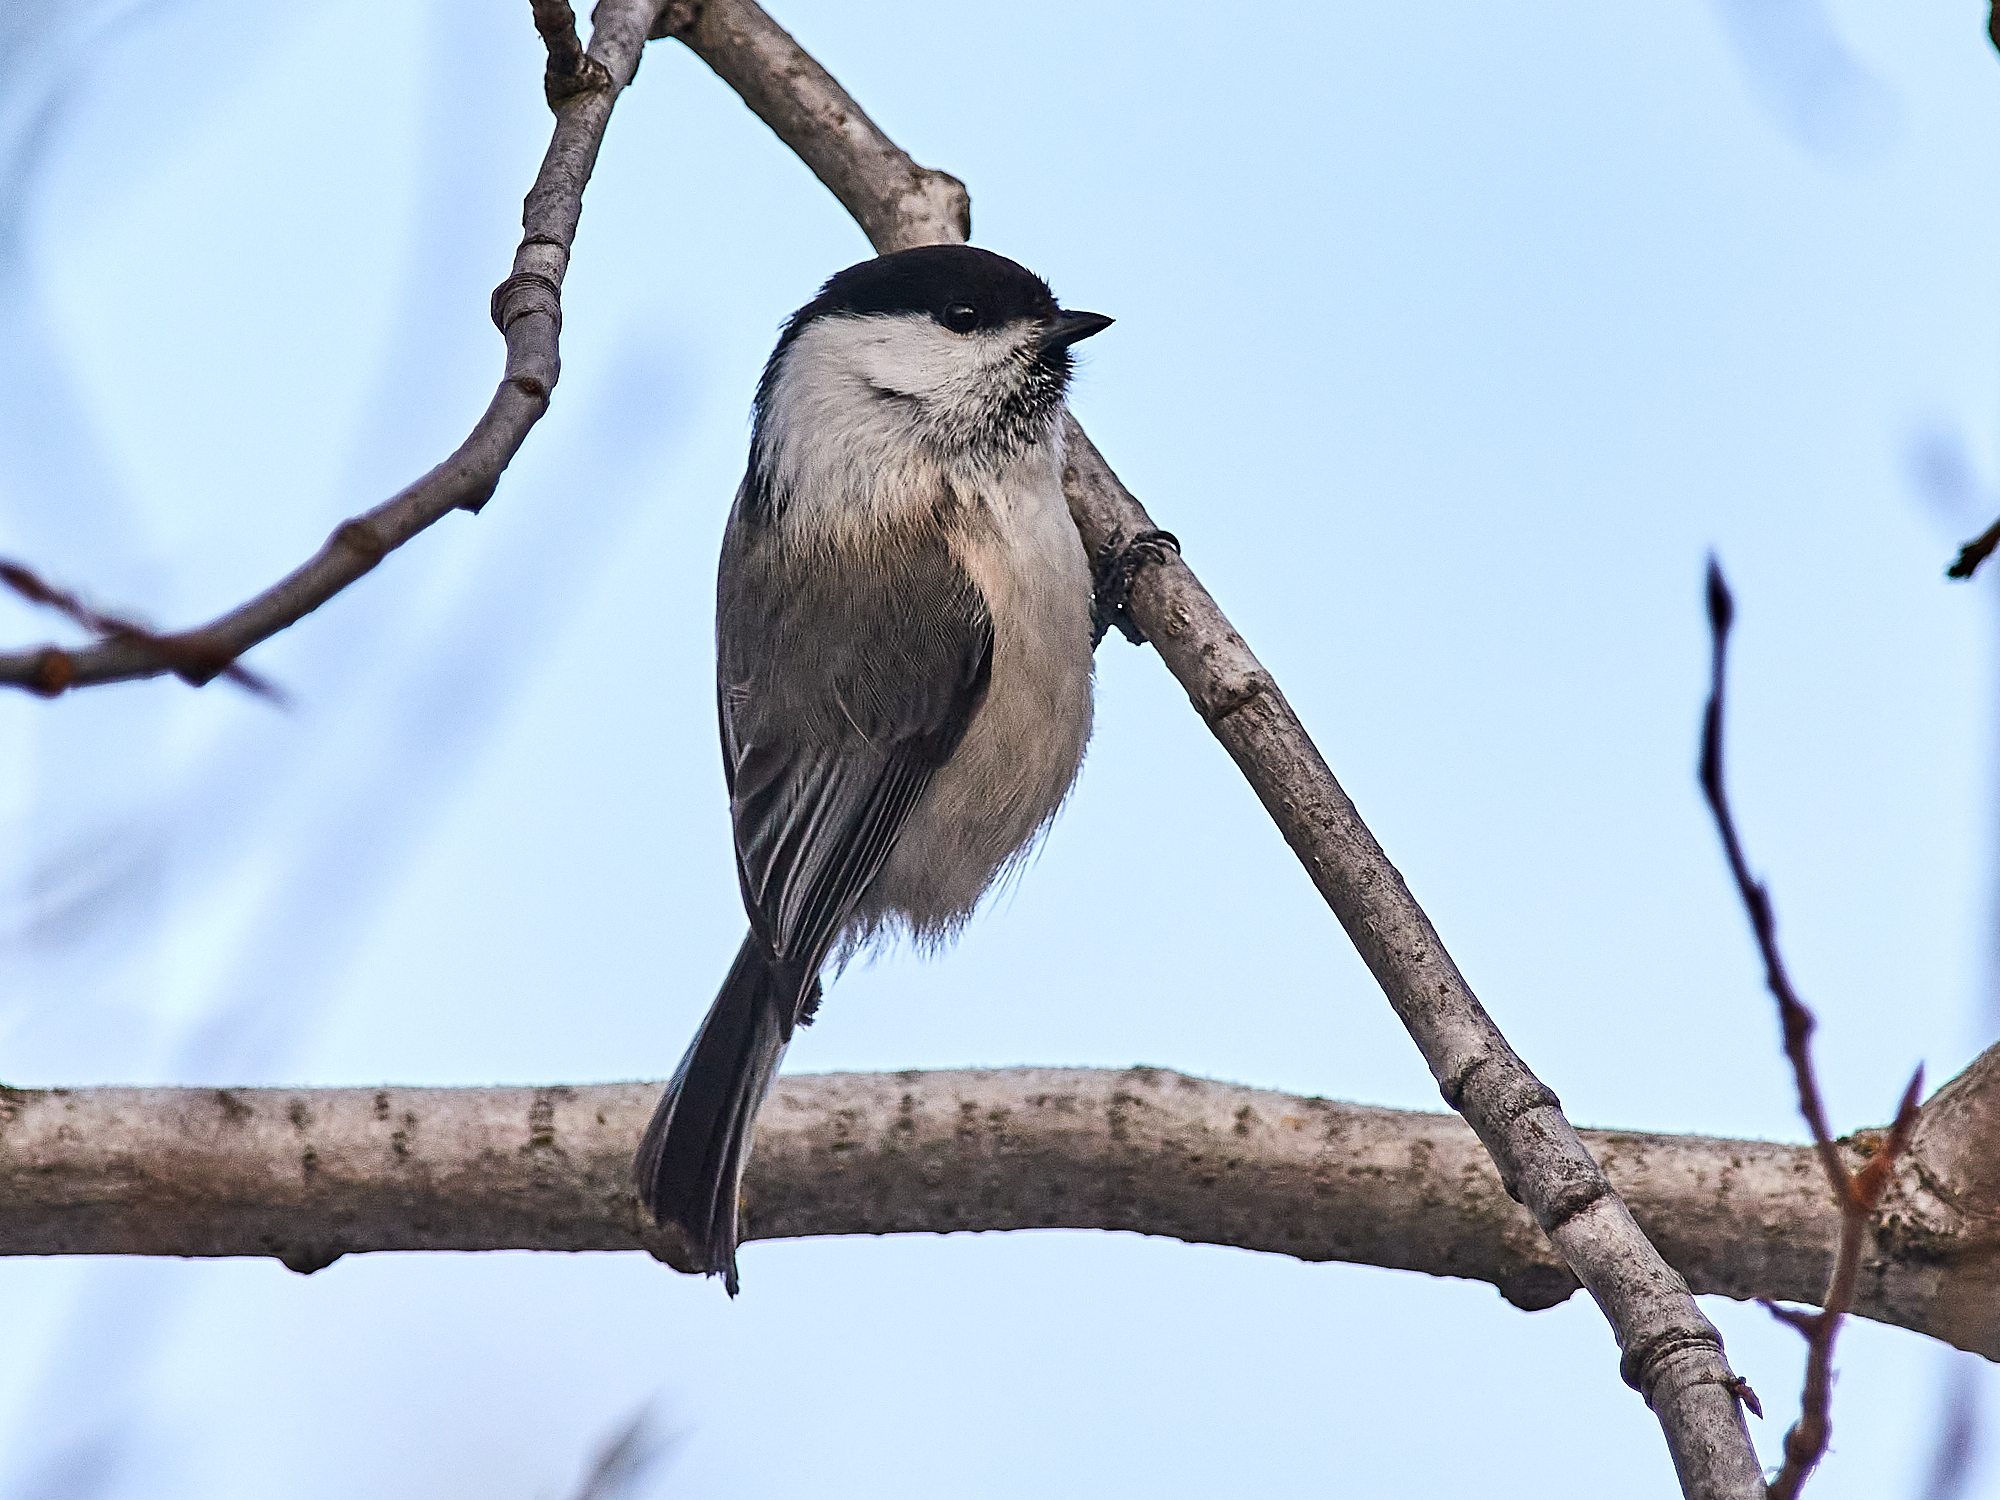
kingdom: Animalia
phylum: Chordata
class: Aves
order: Passeriformes
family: Paridae
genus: Poecile
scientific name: Poecile montanus
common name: Willow tit
